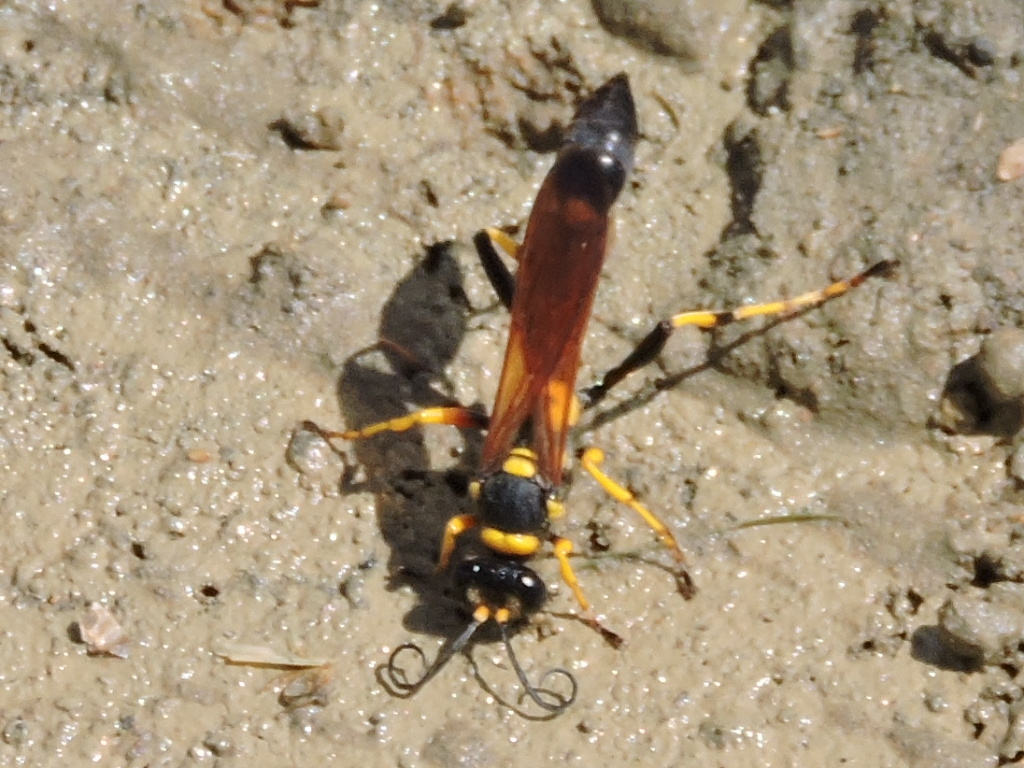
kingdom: Animalia
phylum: Arthropoda
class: Insecta
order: Hymenoptera
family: Sphecidae
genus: Sceliphron
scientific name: Sceliphron caementarium
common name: Mud dauber
